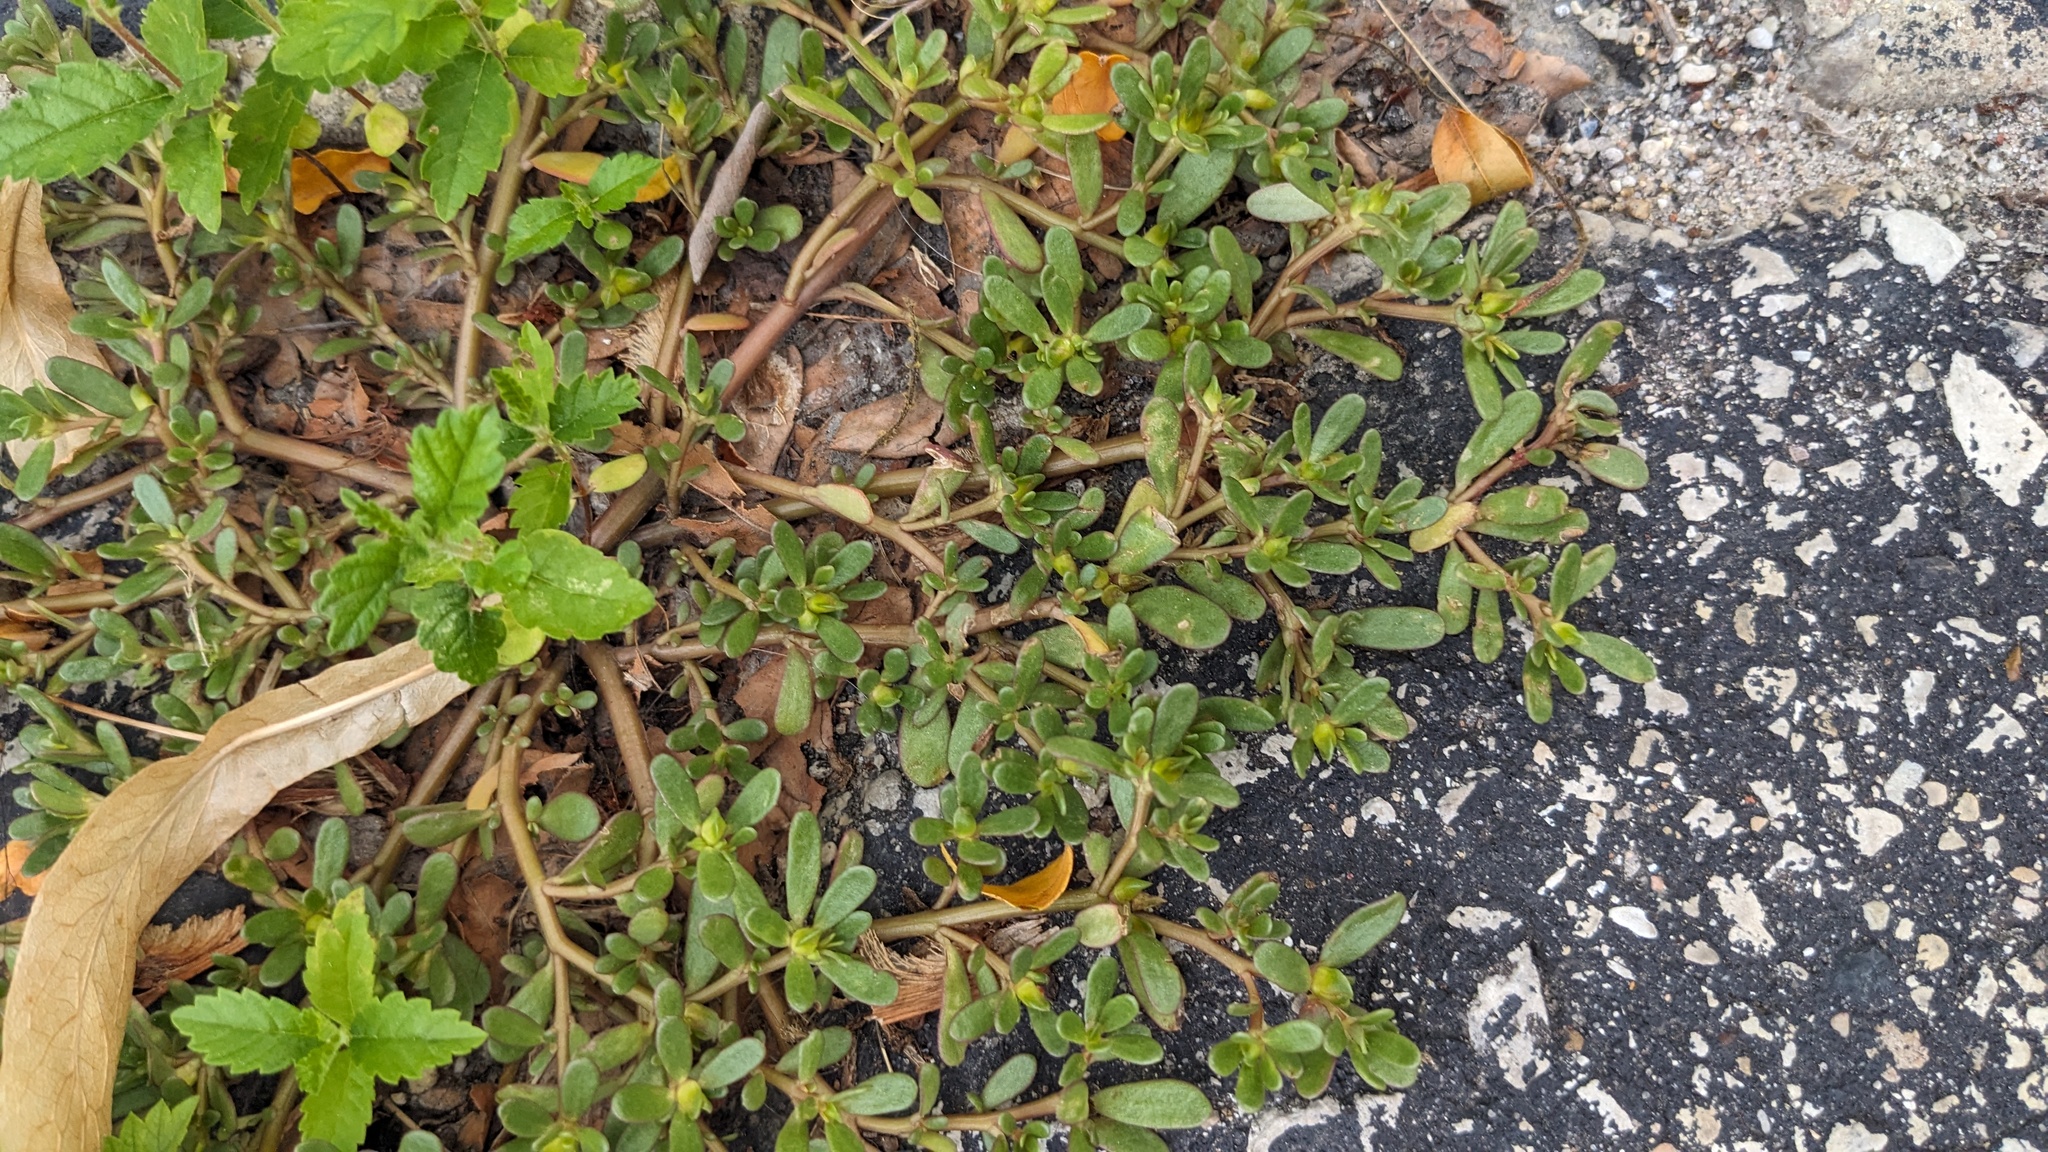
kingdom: Plantae
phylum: Tracheophyta
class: Magnoliopsida
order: Caryophyllales
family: Portulacaceae
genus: Portulaca
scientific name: Portulaca oleracea
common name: Common purslane
